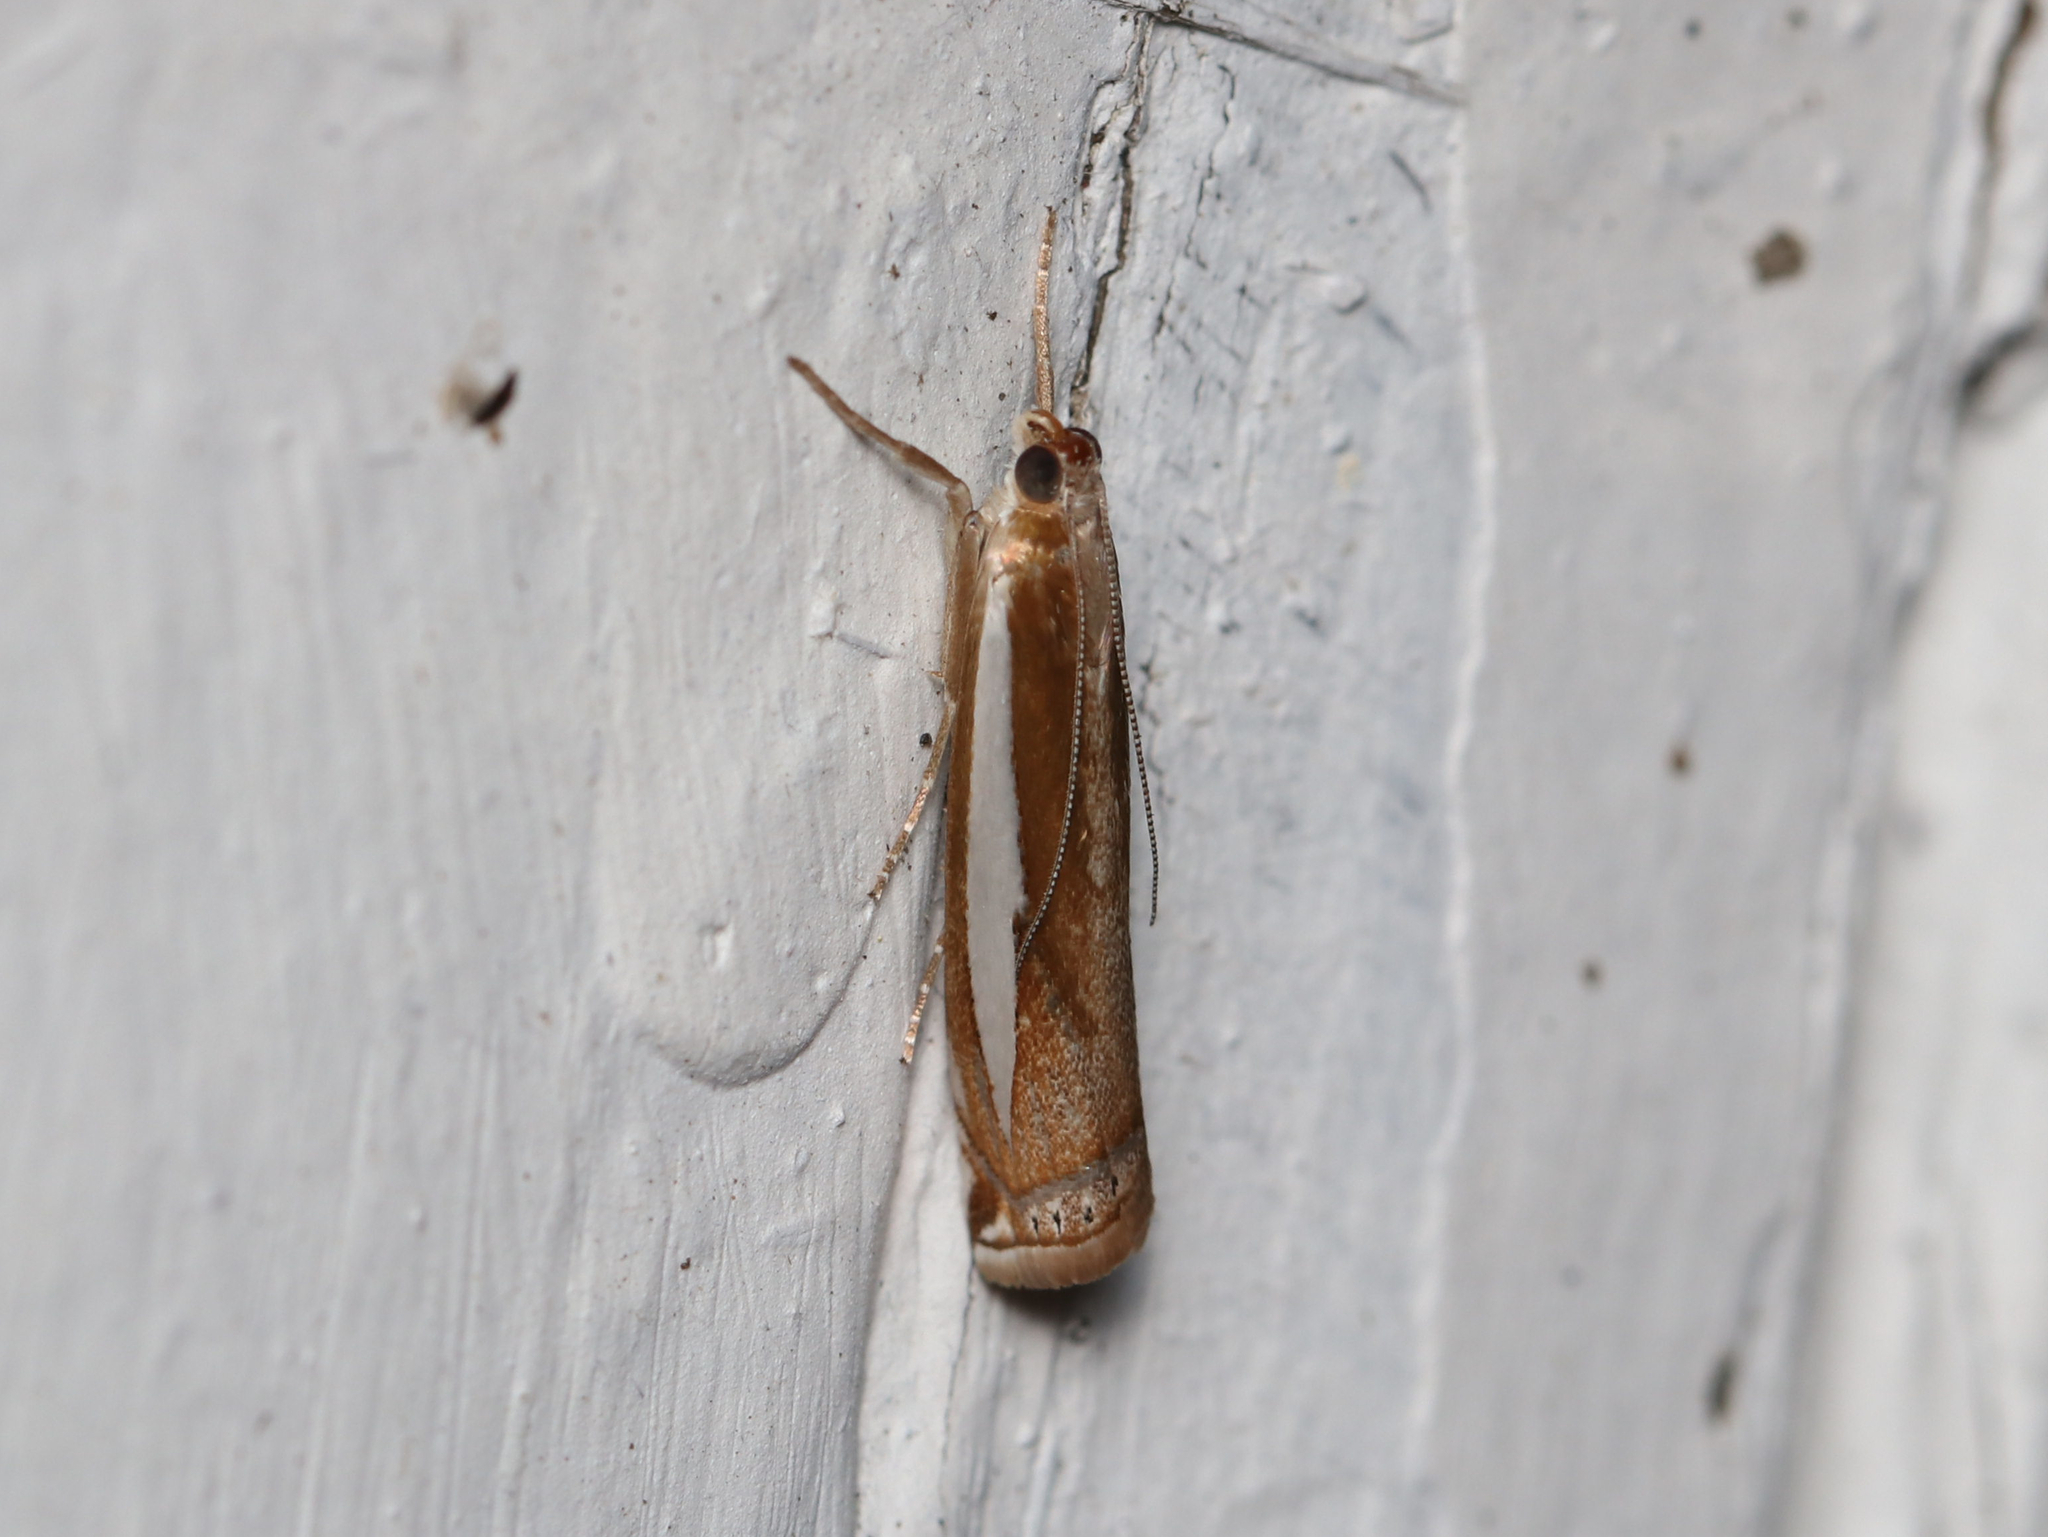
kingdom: Animalia
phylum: Arthropoda
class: Insecta
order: Lepidoptera
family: Crambidae
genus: Crambus
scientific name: Crambus praefectellus
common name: Common grass-veneer
